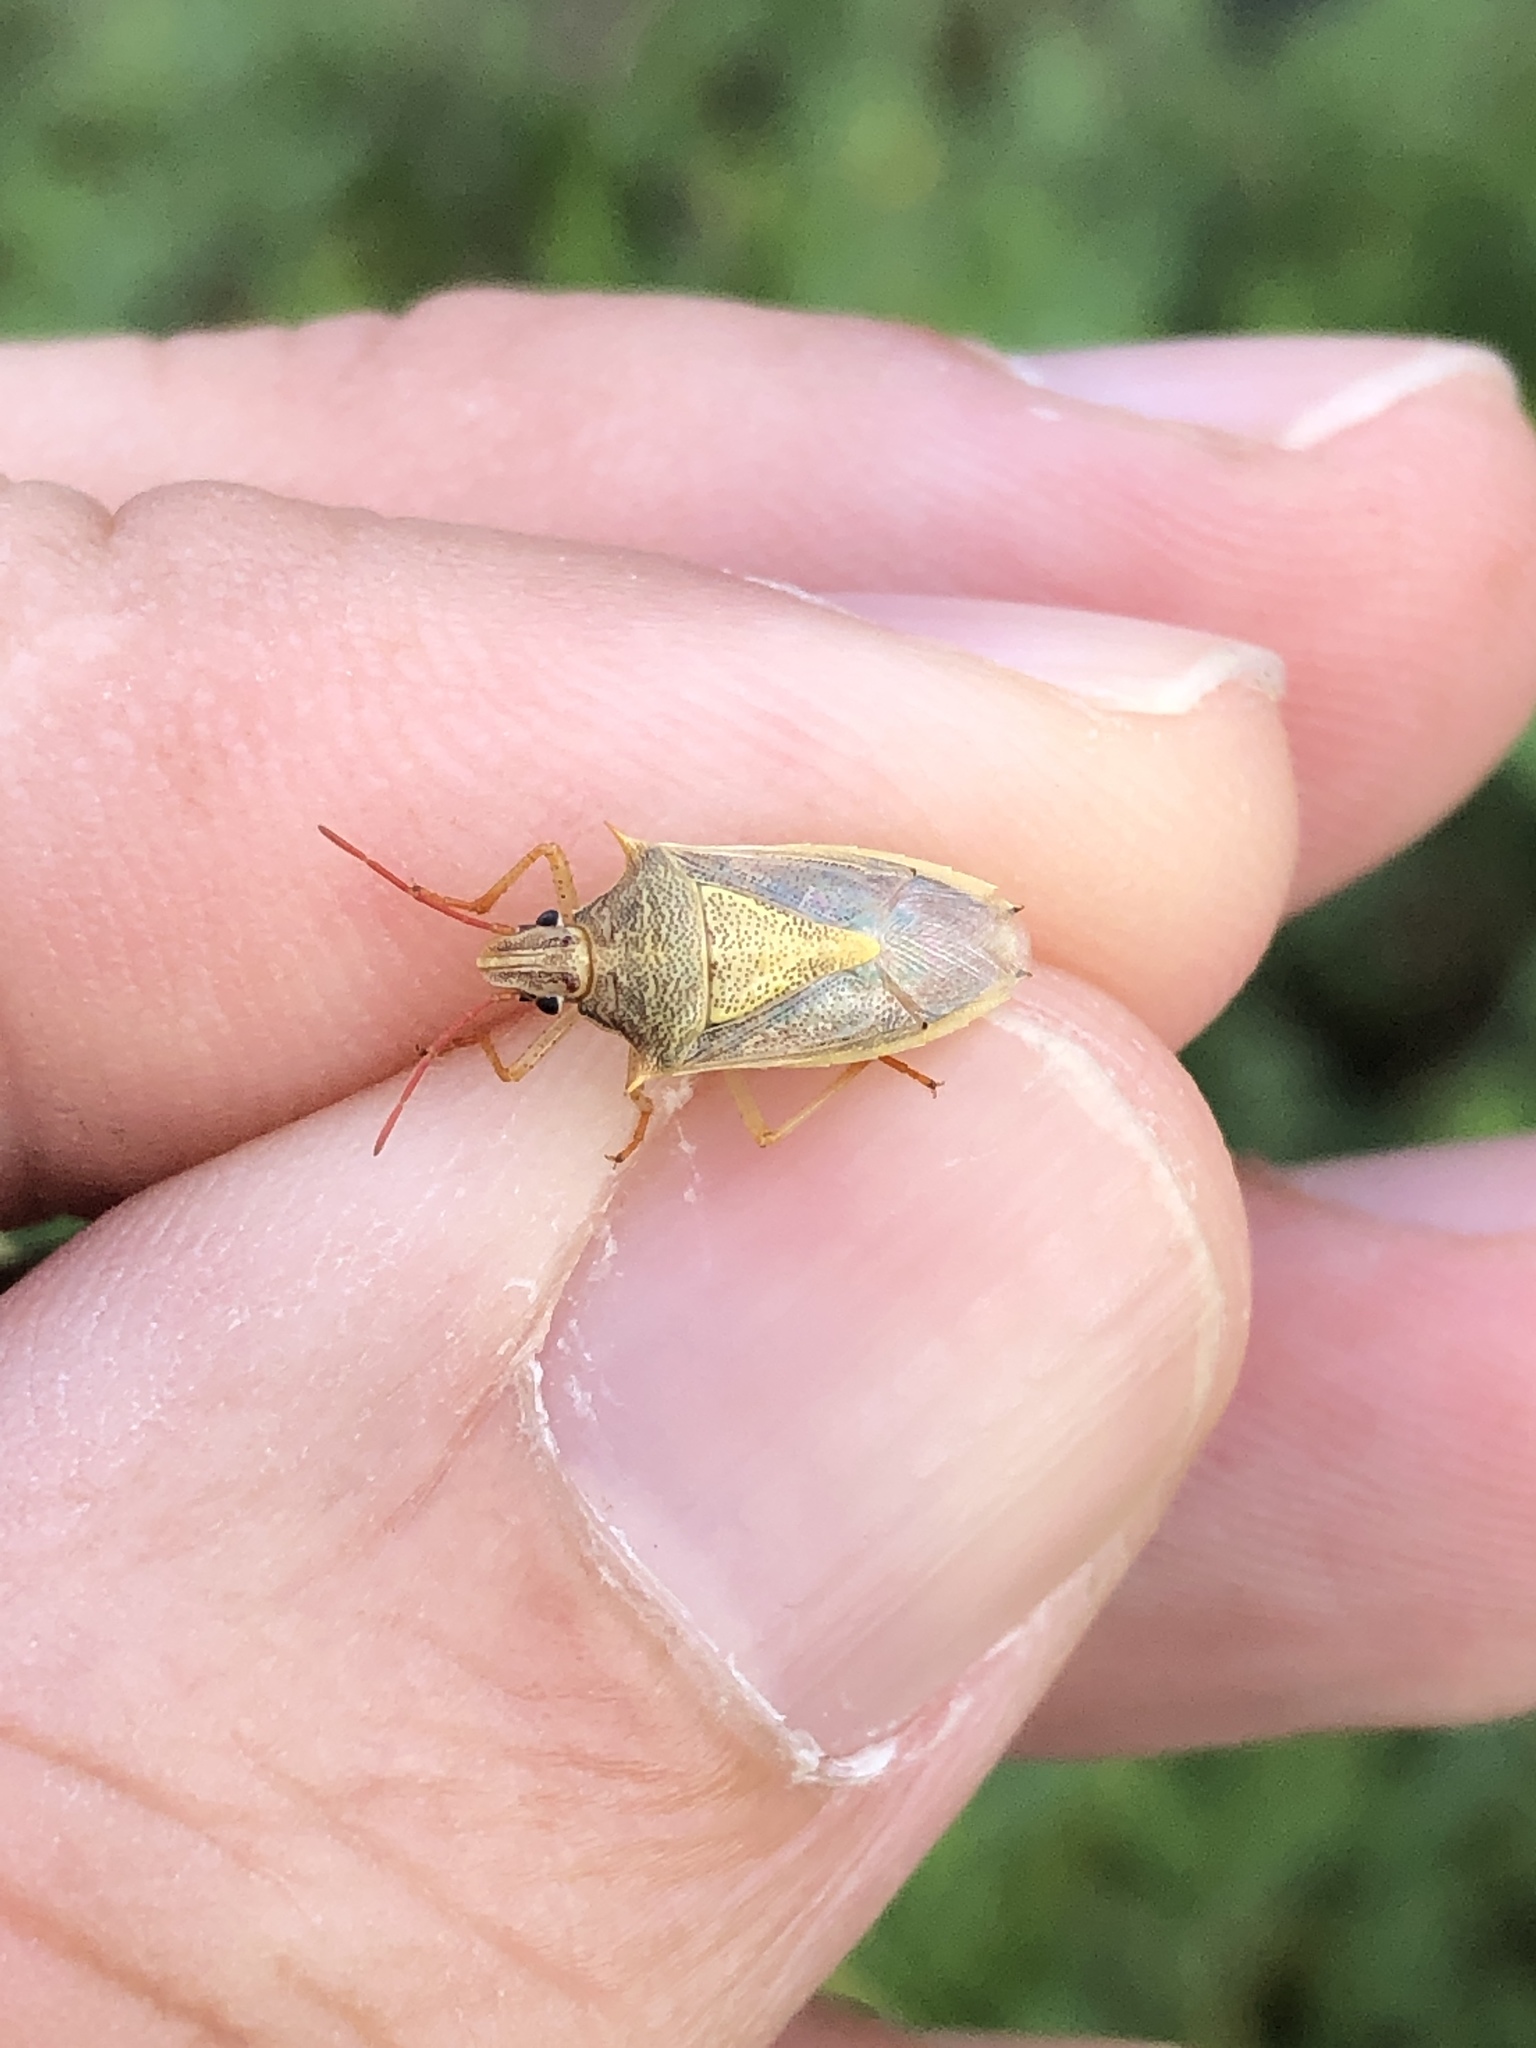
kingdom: Animalia
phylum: Arthropoda
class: Insecta
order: Hemiptera
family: Pentatomidae
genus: Oebalus
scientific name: Oebalus pugnax
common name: Rice stink bug
